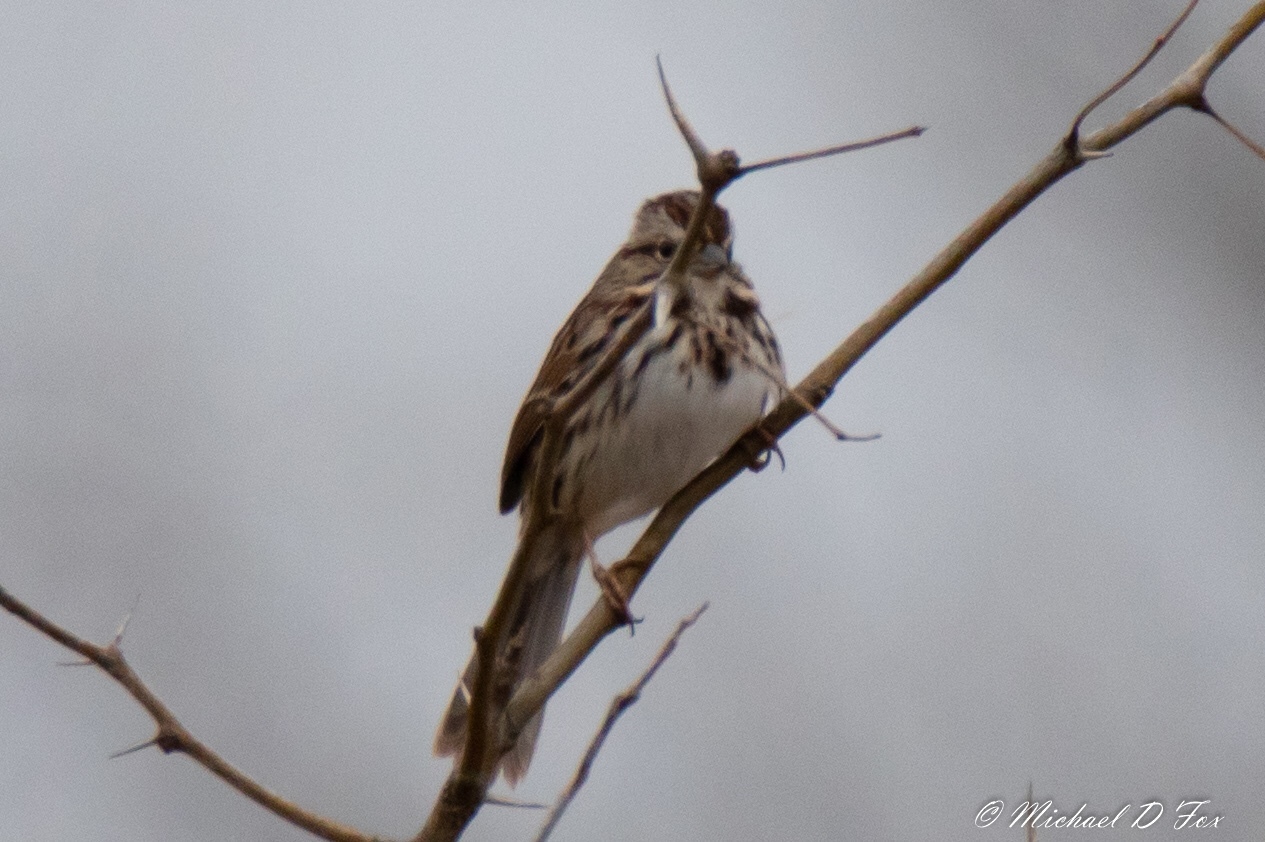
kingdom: Animalia
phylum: Chordata
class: Aves
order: Passeriformes
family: Passerellidae
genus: Melospiza
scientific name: Melospiza melodia
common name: Song sparrow
